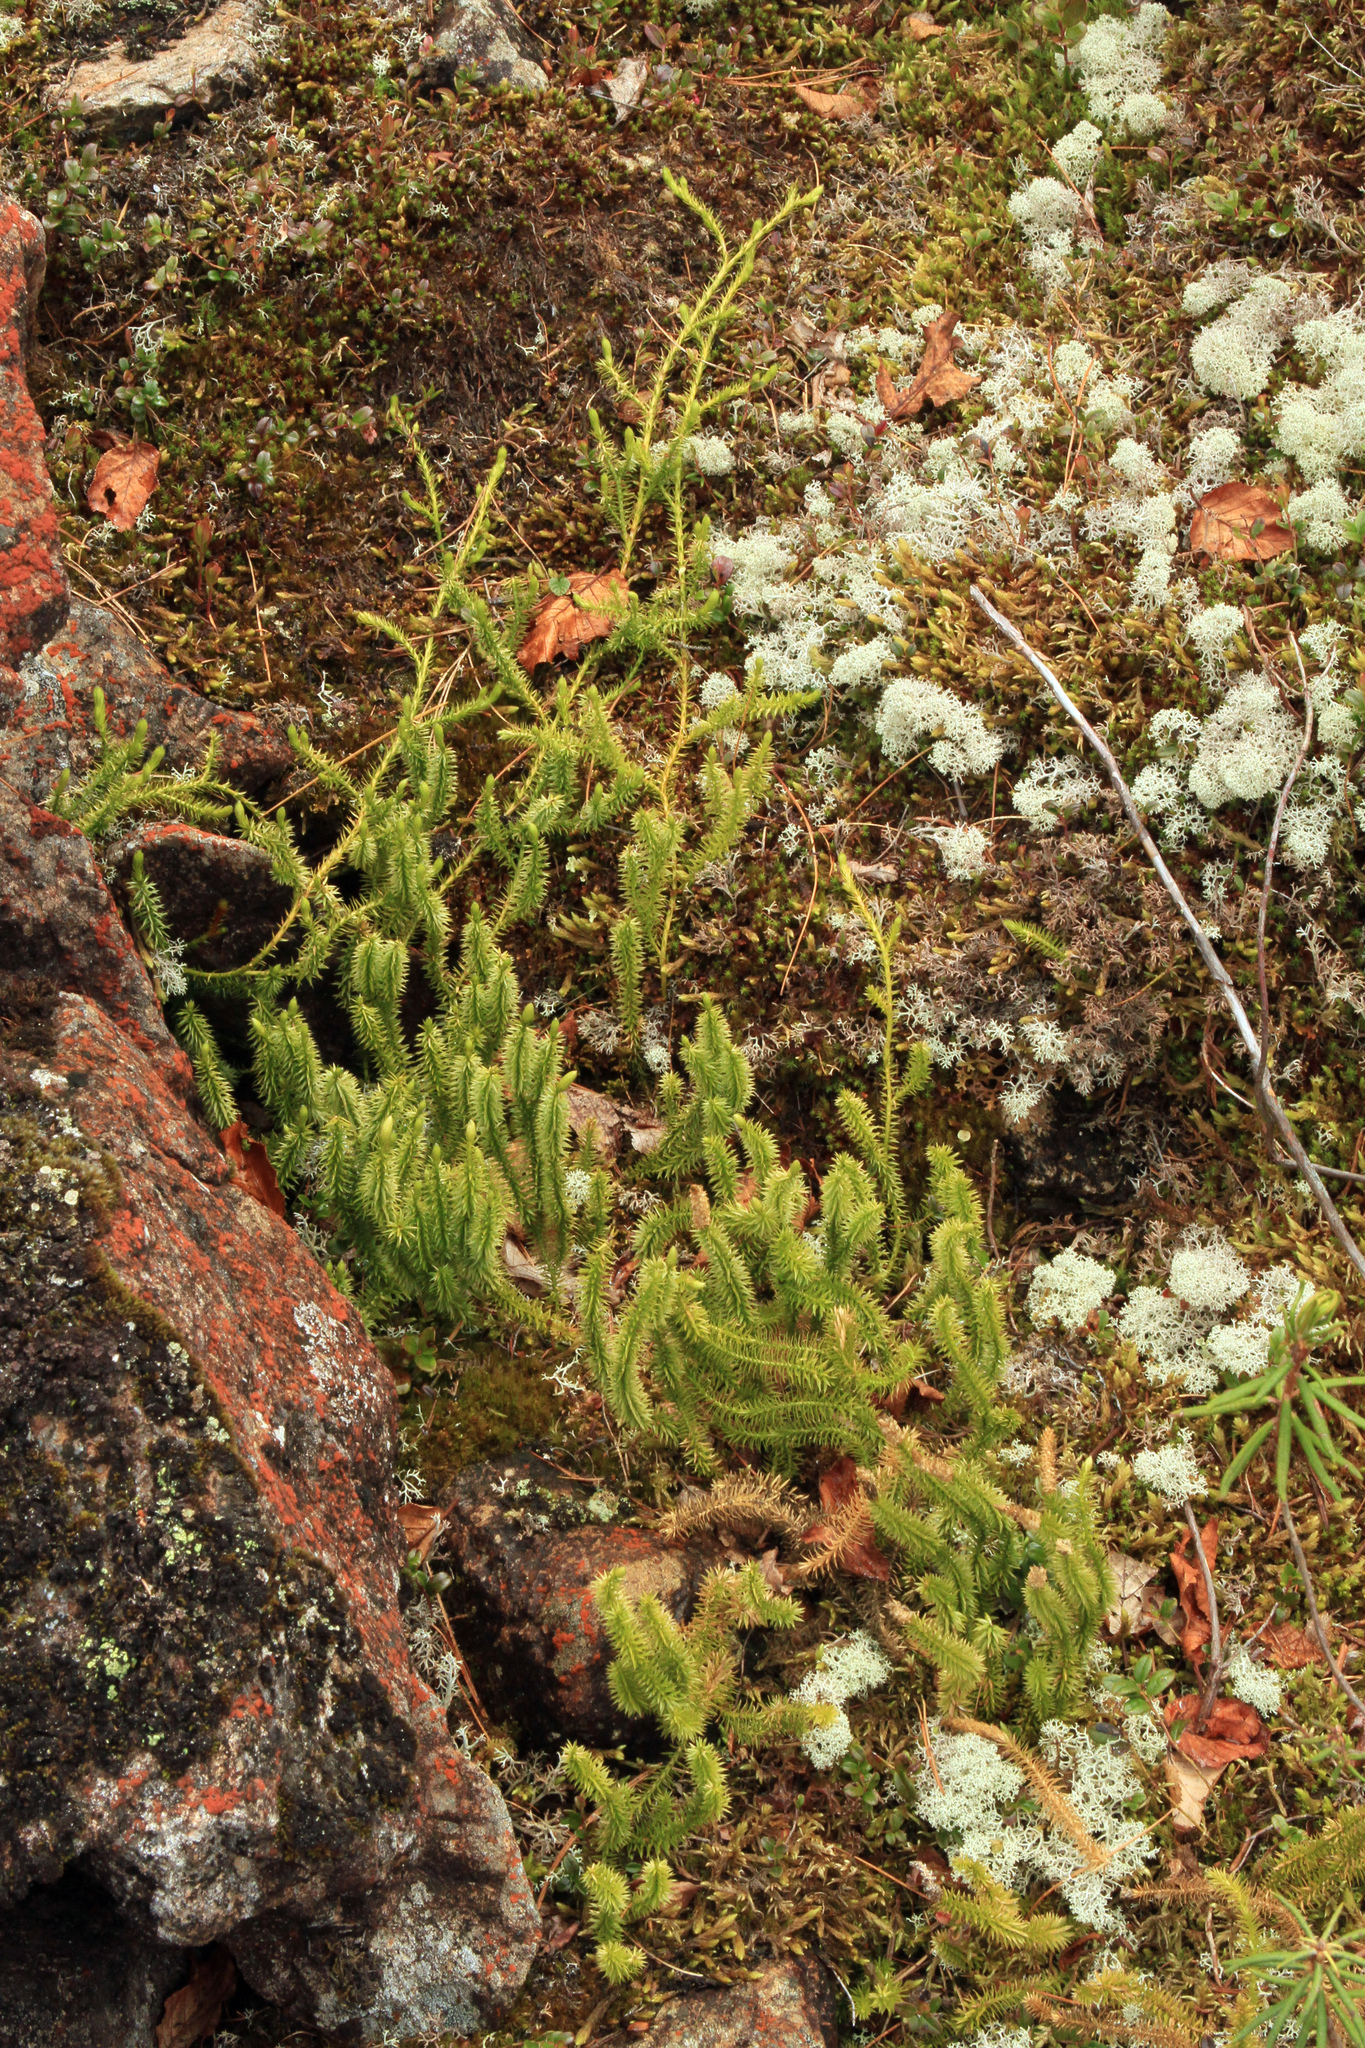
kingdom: Plantae
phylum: Tracheophyta
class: Lycopodiopsida
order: Lycopodiales
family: Lycopodiaceae
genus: Spinulum
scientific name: Spinulum annotinum
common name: Interrupted club-moss
